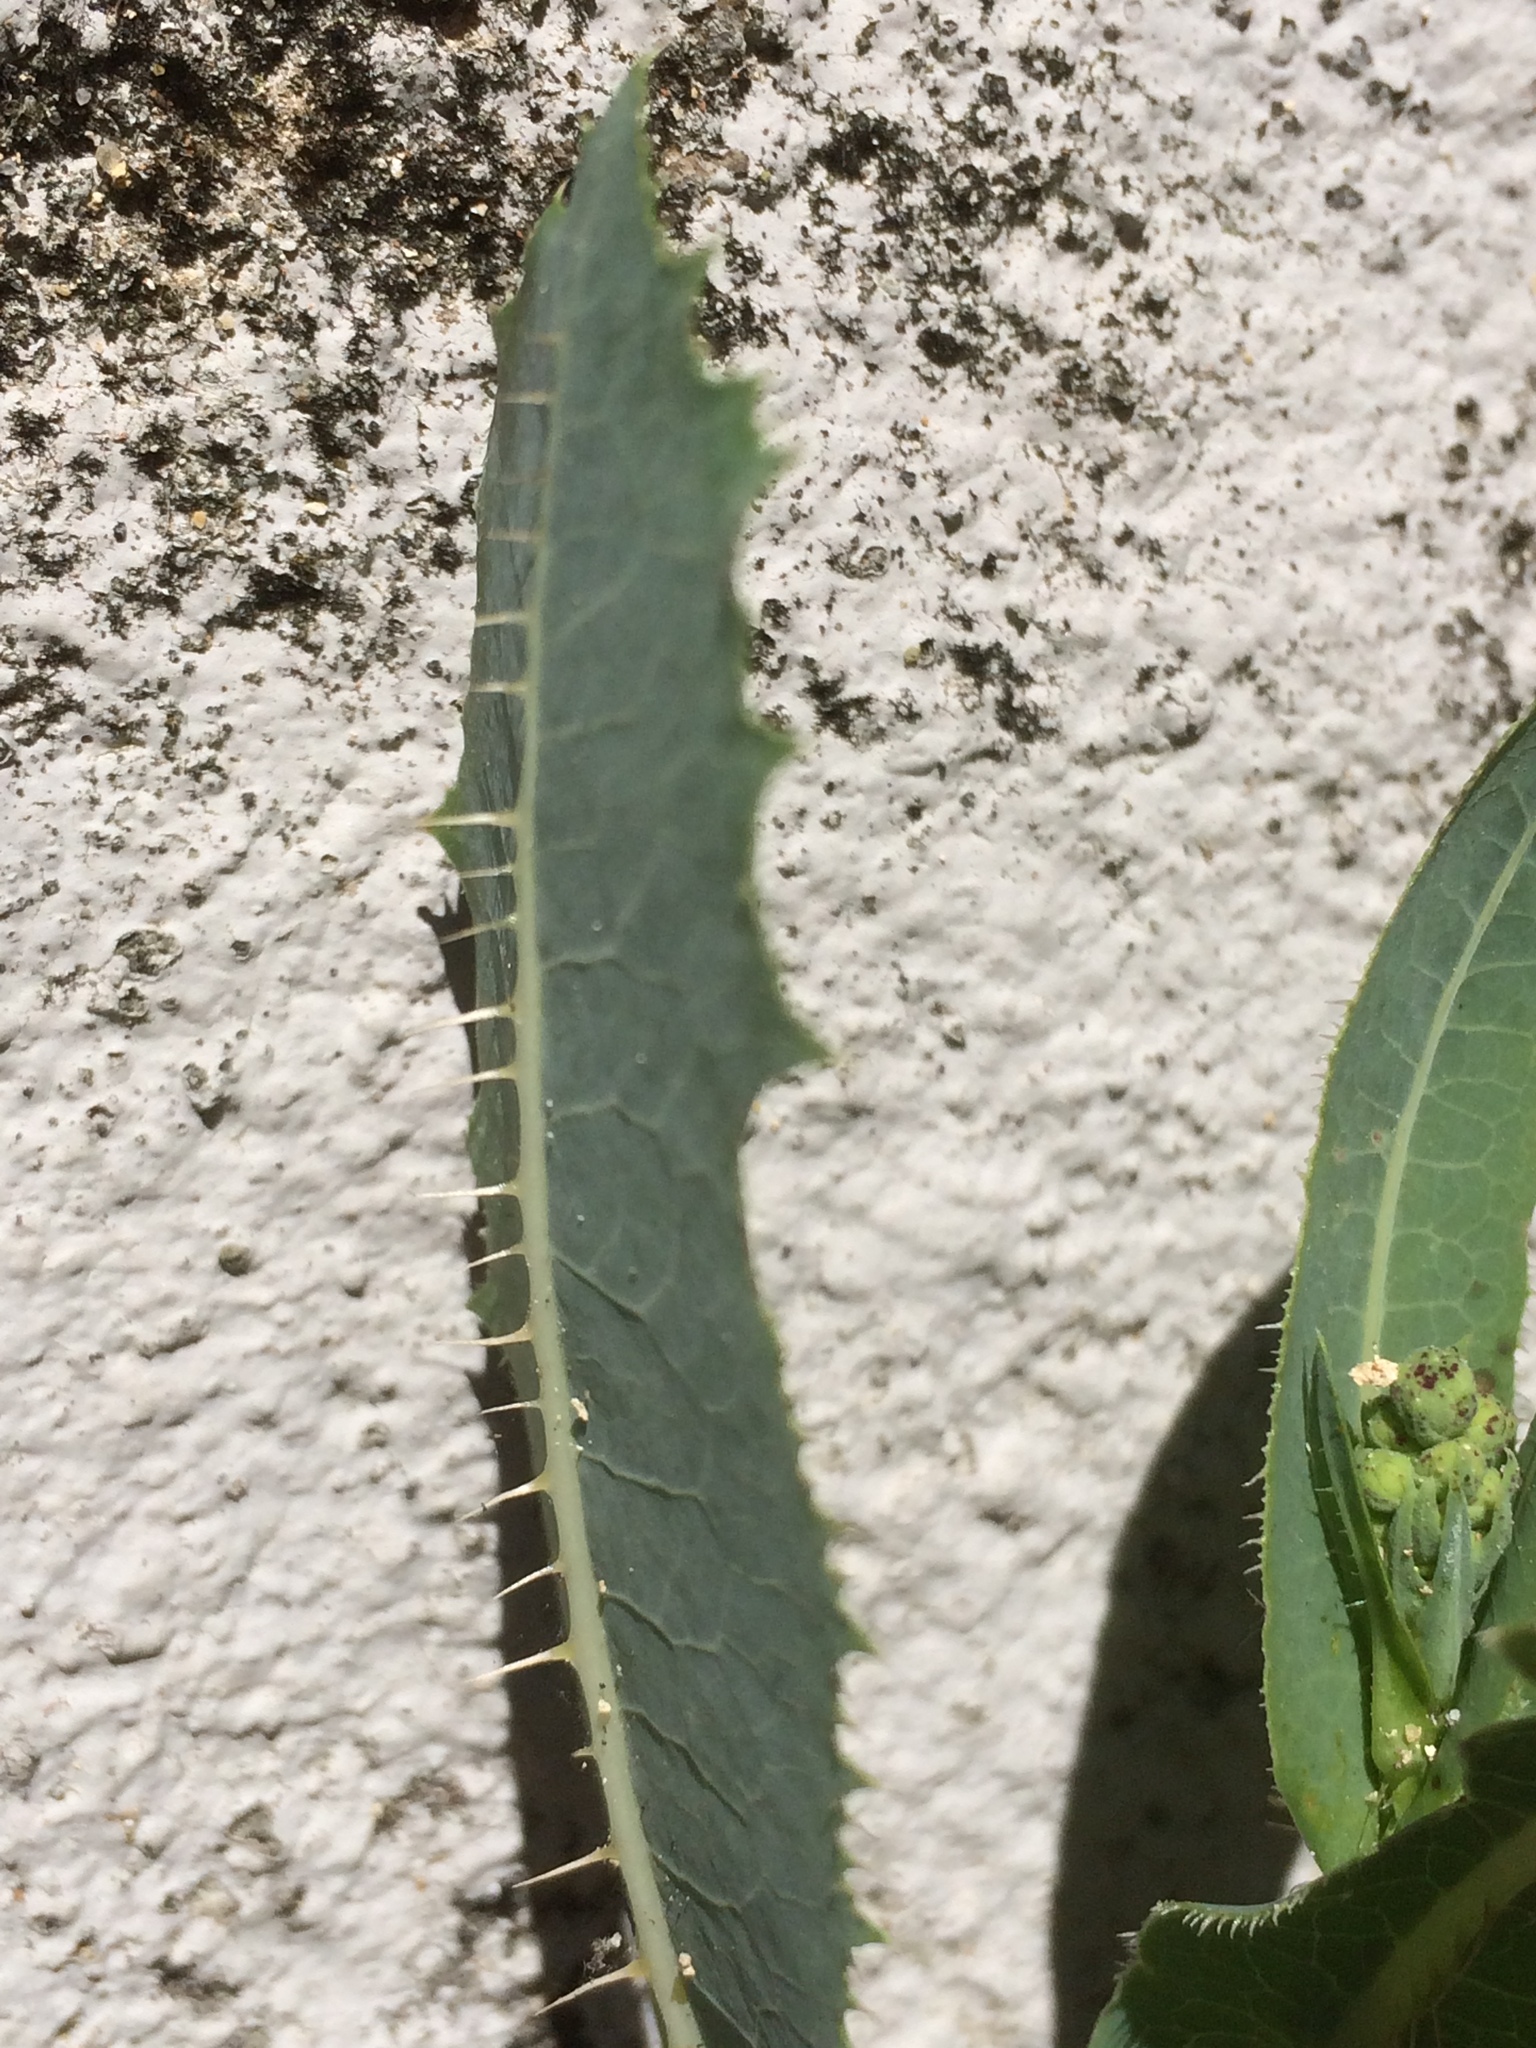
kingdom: Plantae
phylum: Tracheophyta
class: Magnoliopsida
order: Asterales
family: Asteraceae
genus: Lactuca
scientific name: Lactuca serriola
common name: Prickly lettuce
